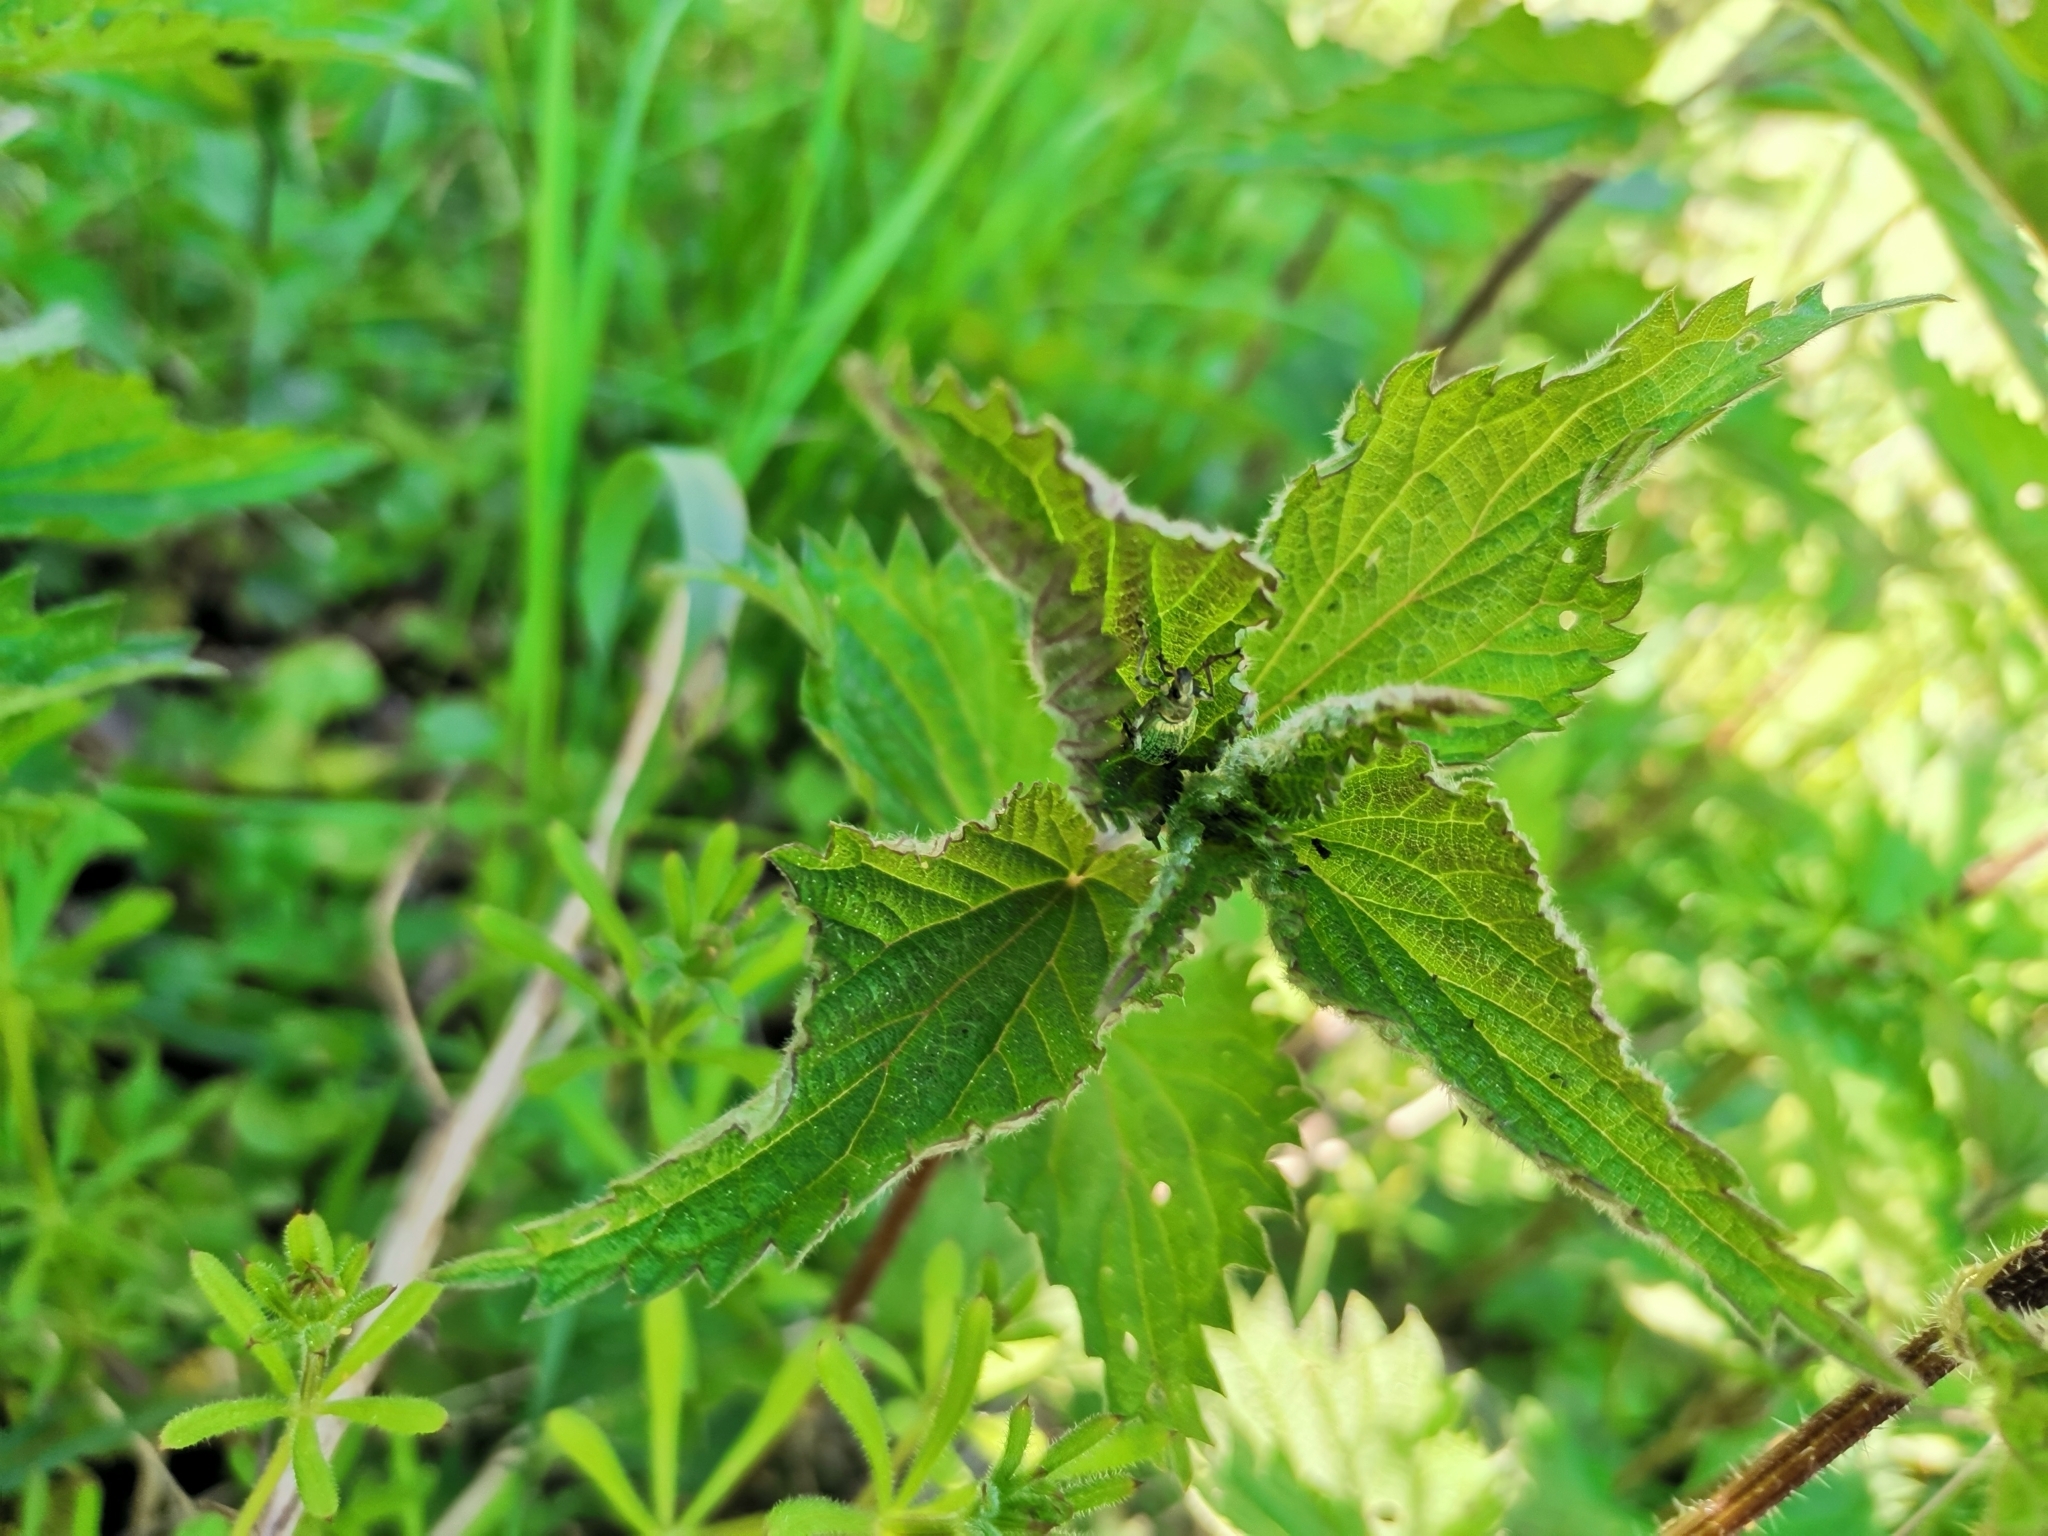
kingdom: Animalia
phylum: Arthropoda
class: Insecta
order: Coleoptera
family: Curculionidae
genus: Phyllobius
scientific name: Phyllobius pomaceus
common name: Green nettle weevil
